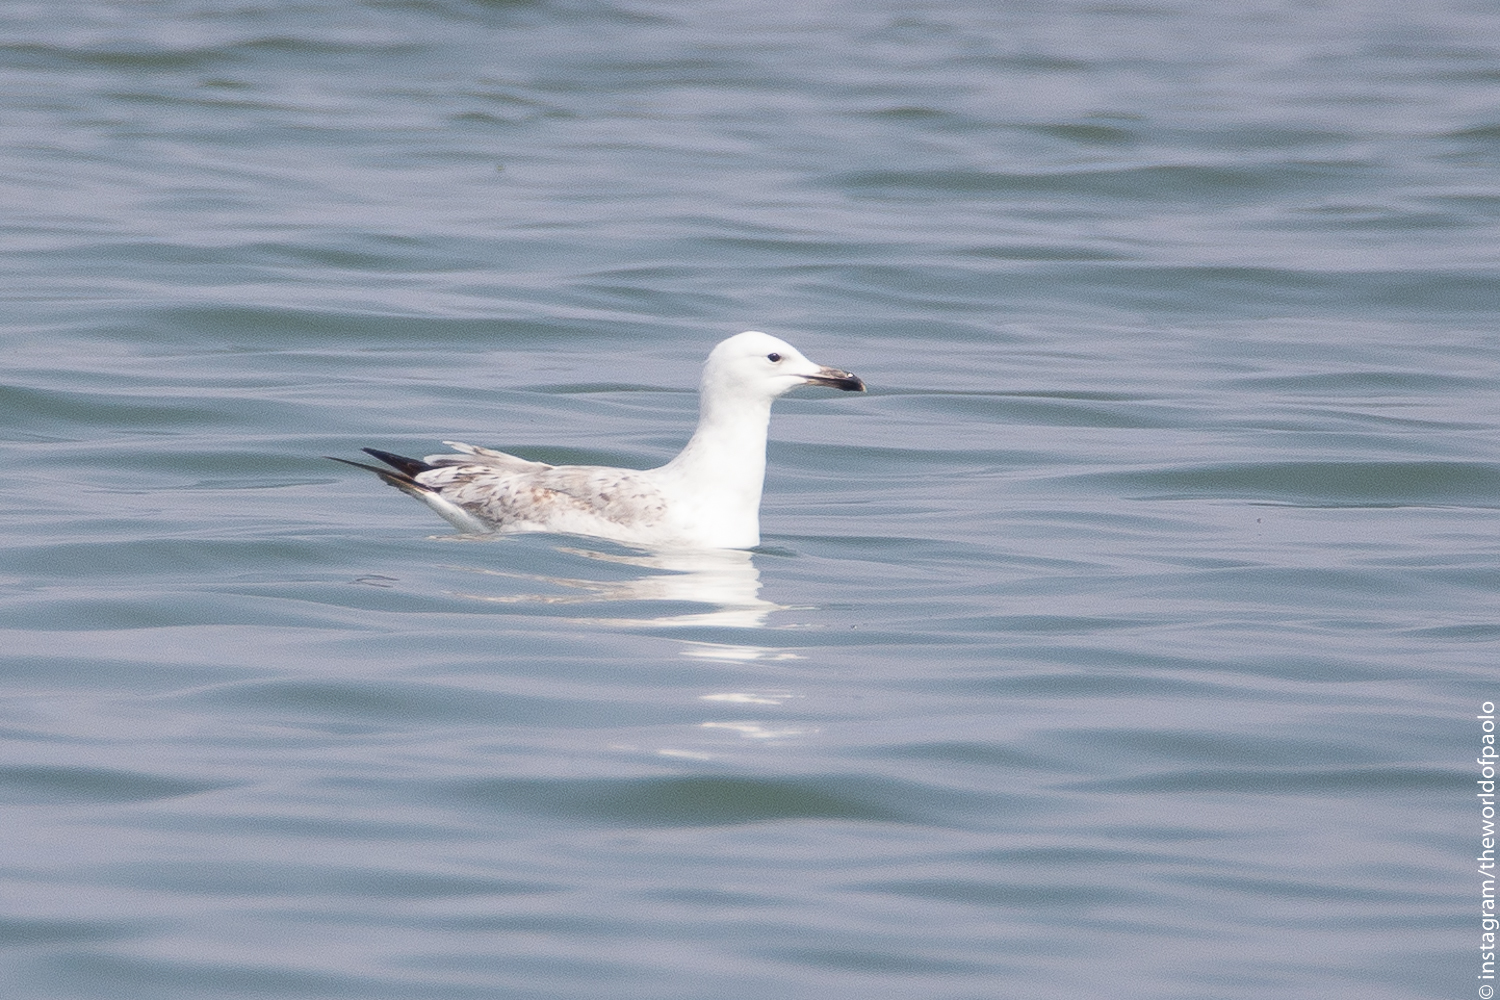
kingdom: Animalia
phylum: Chordata
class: Aves
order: Charadriiformes
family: Laridae
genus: Larus
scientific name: Larus cachinnans
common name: Caspian gull
